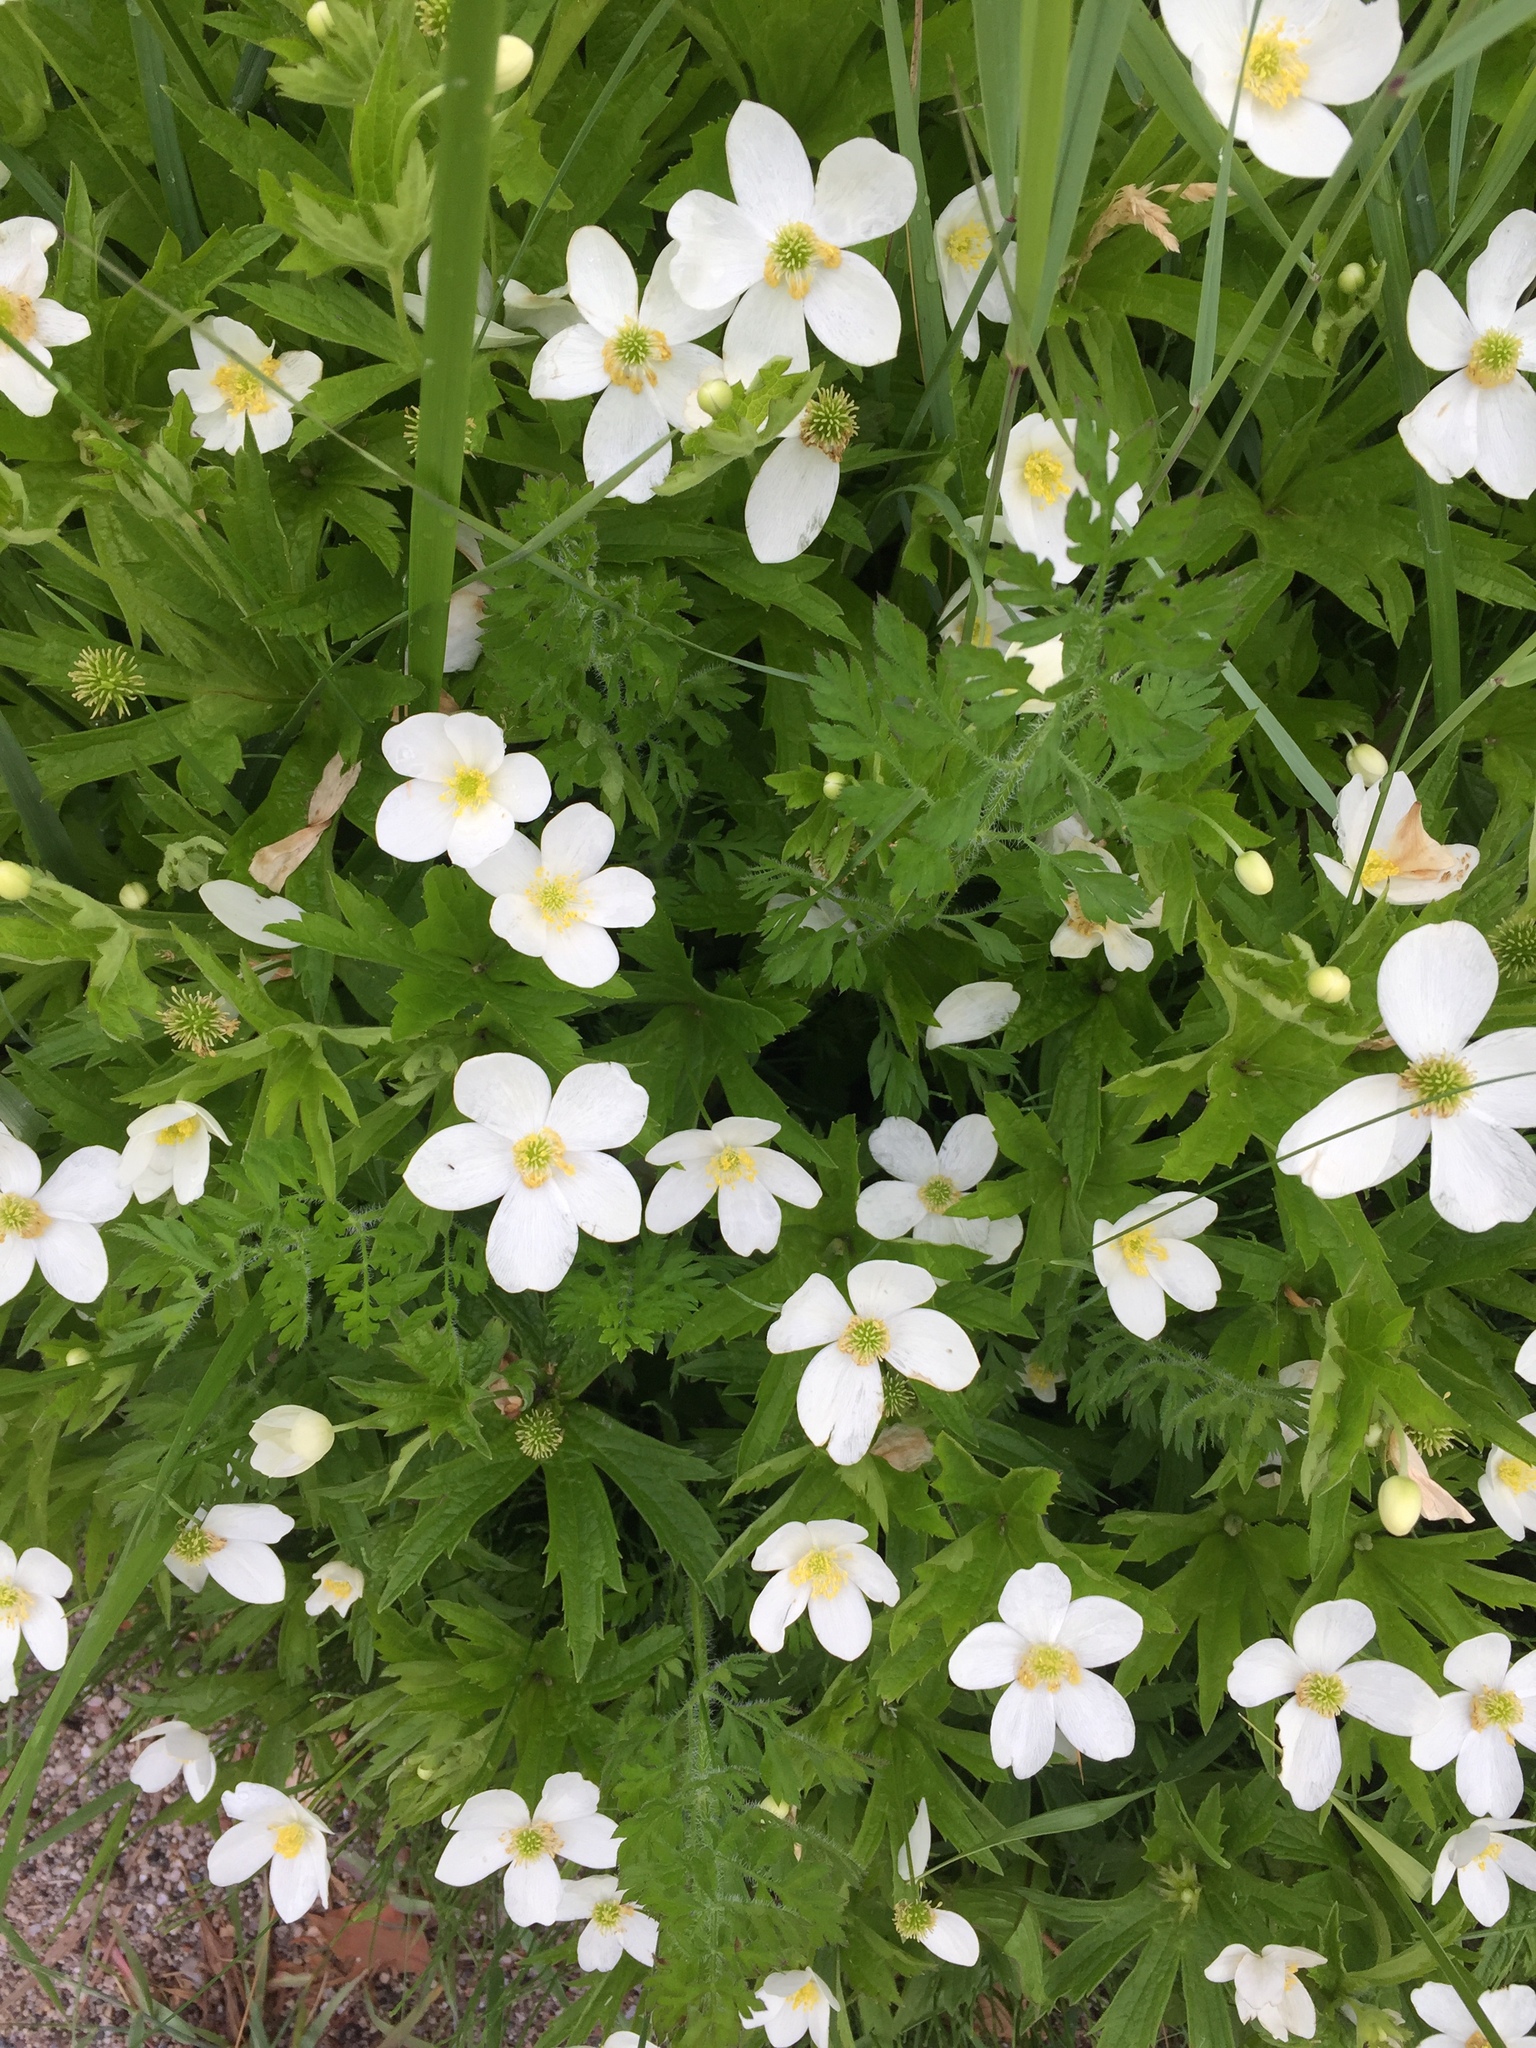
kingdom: Plantae
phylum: Tracheophyta
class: Magnoliopsida
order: Ranunculales
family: Ranunculaceae
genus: Anemonastrum
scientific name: Anemonastrum canadense
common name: Canada anemone
